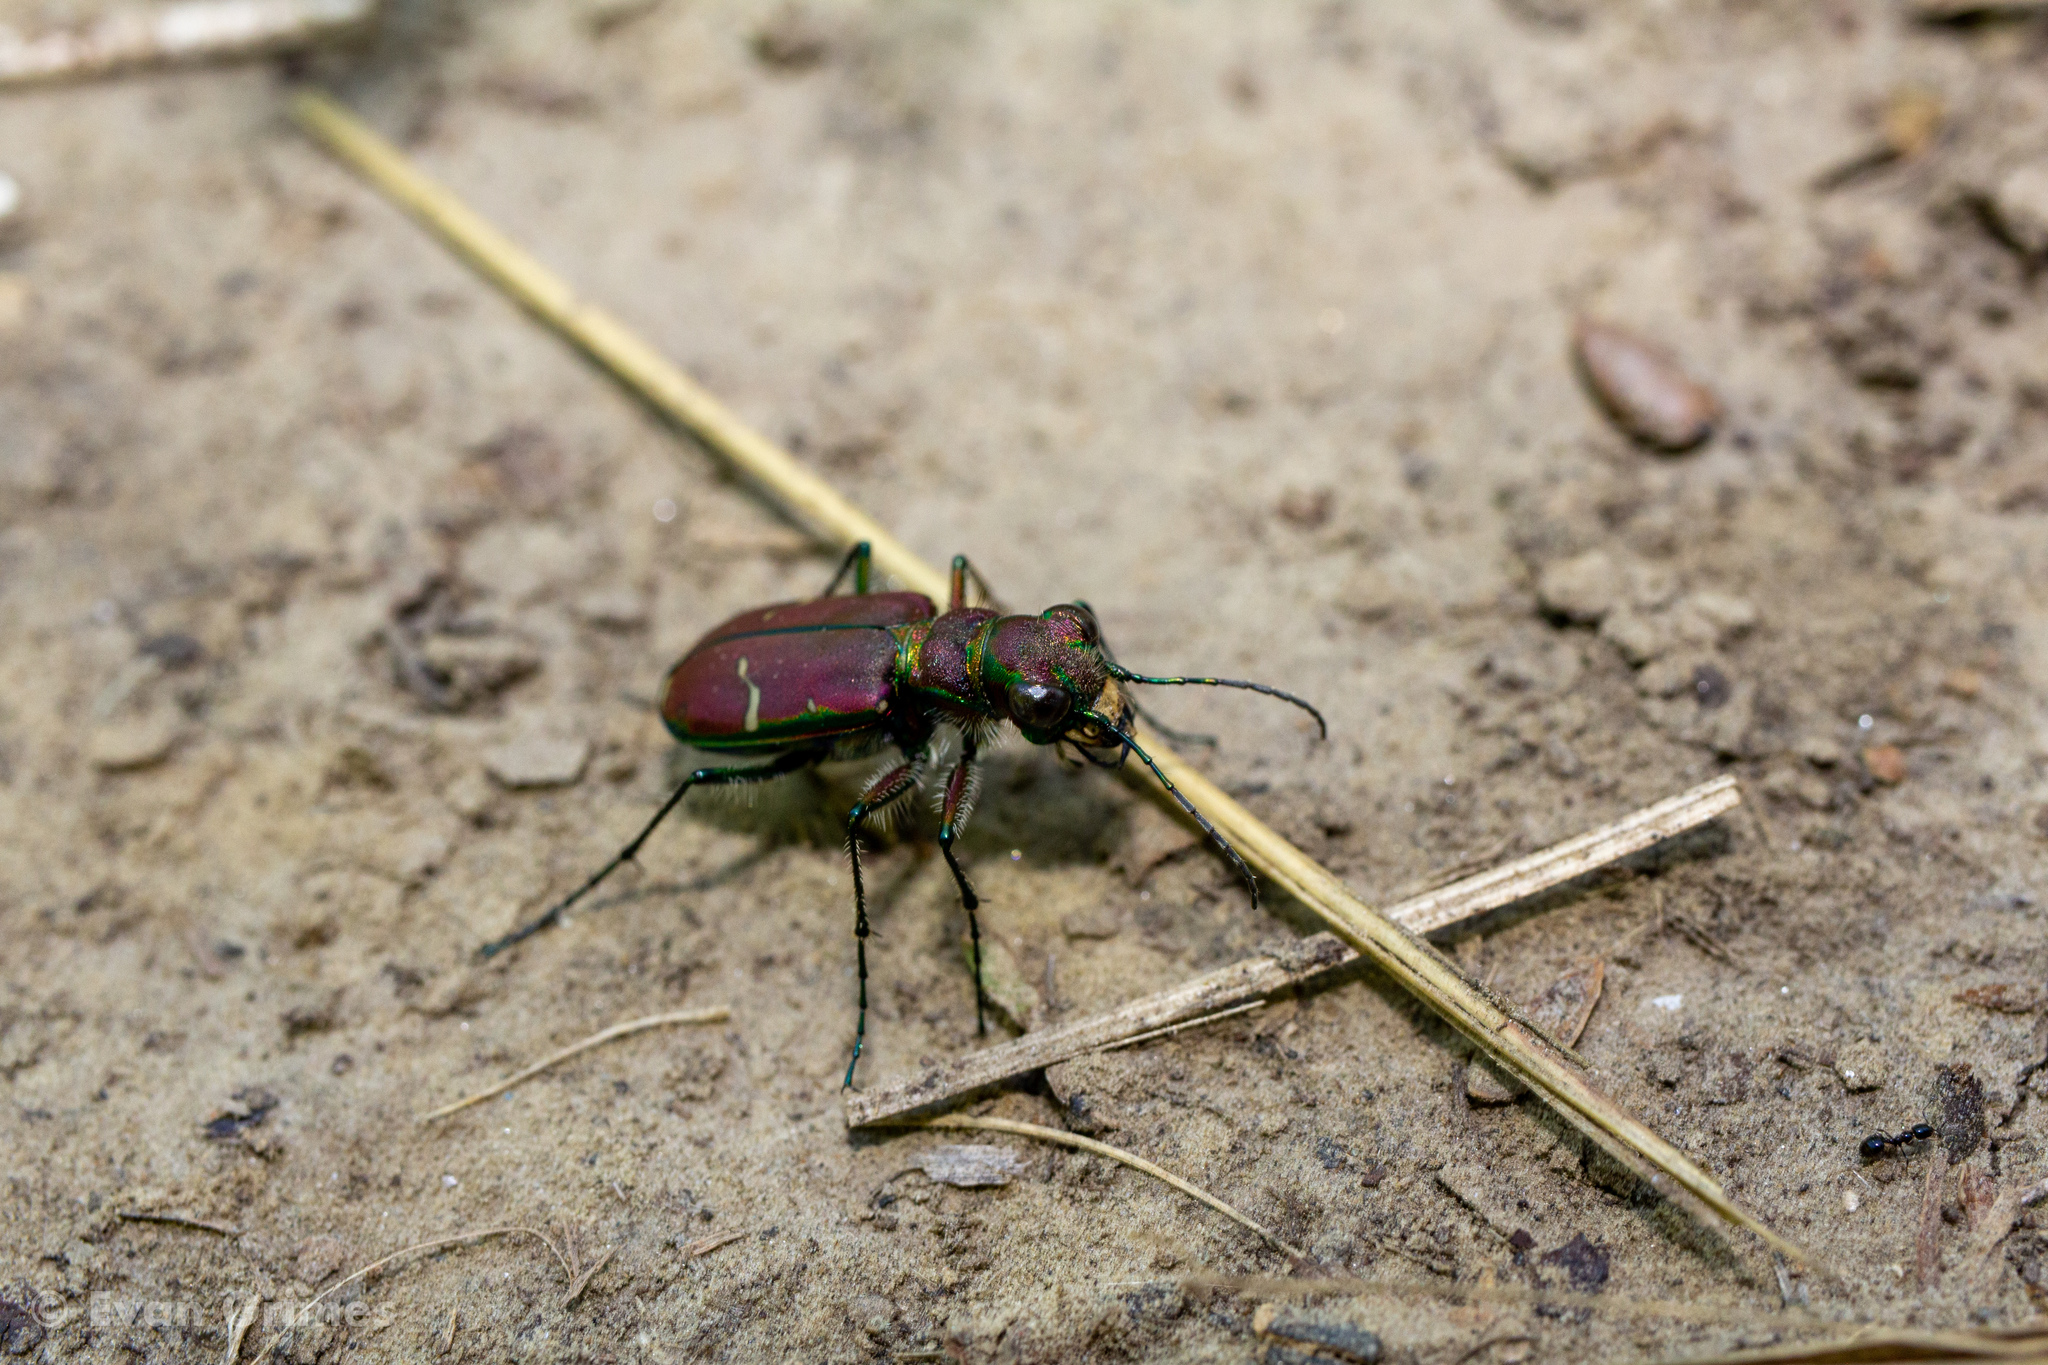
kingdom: Animalia
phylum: Arthropoda
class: Insecta
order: Coleoptera
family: Carabidae
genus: Cicindela
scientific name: Cicindela limbalis
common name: Common claybank tiger beetle
